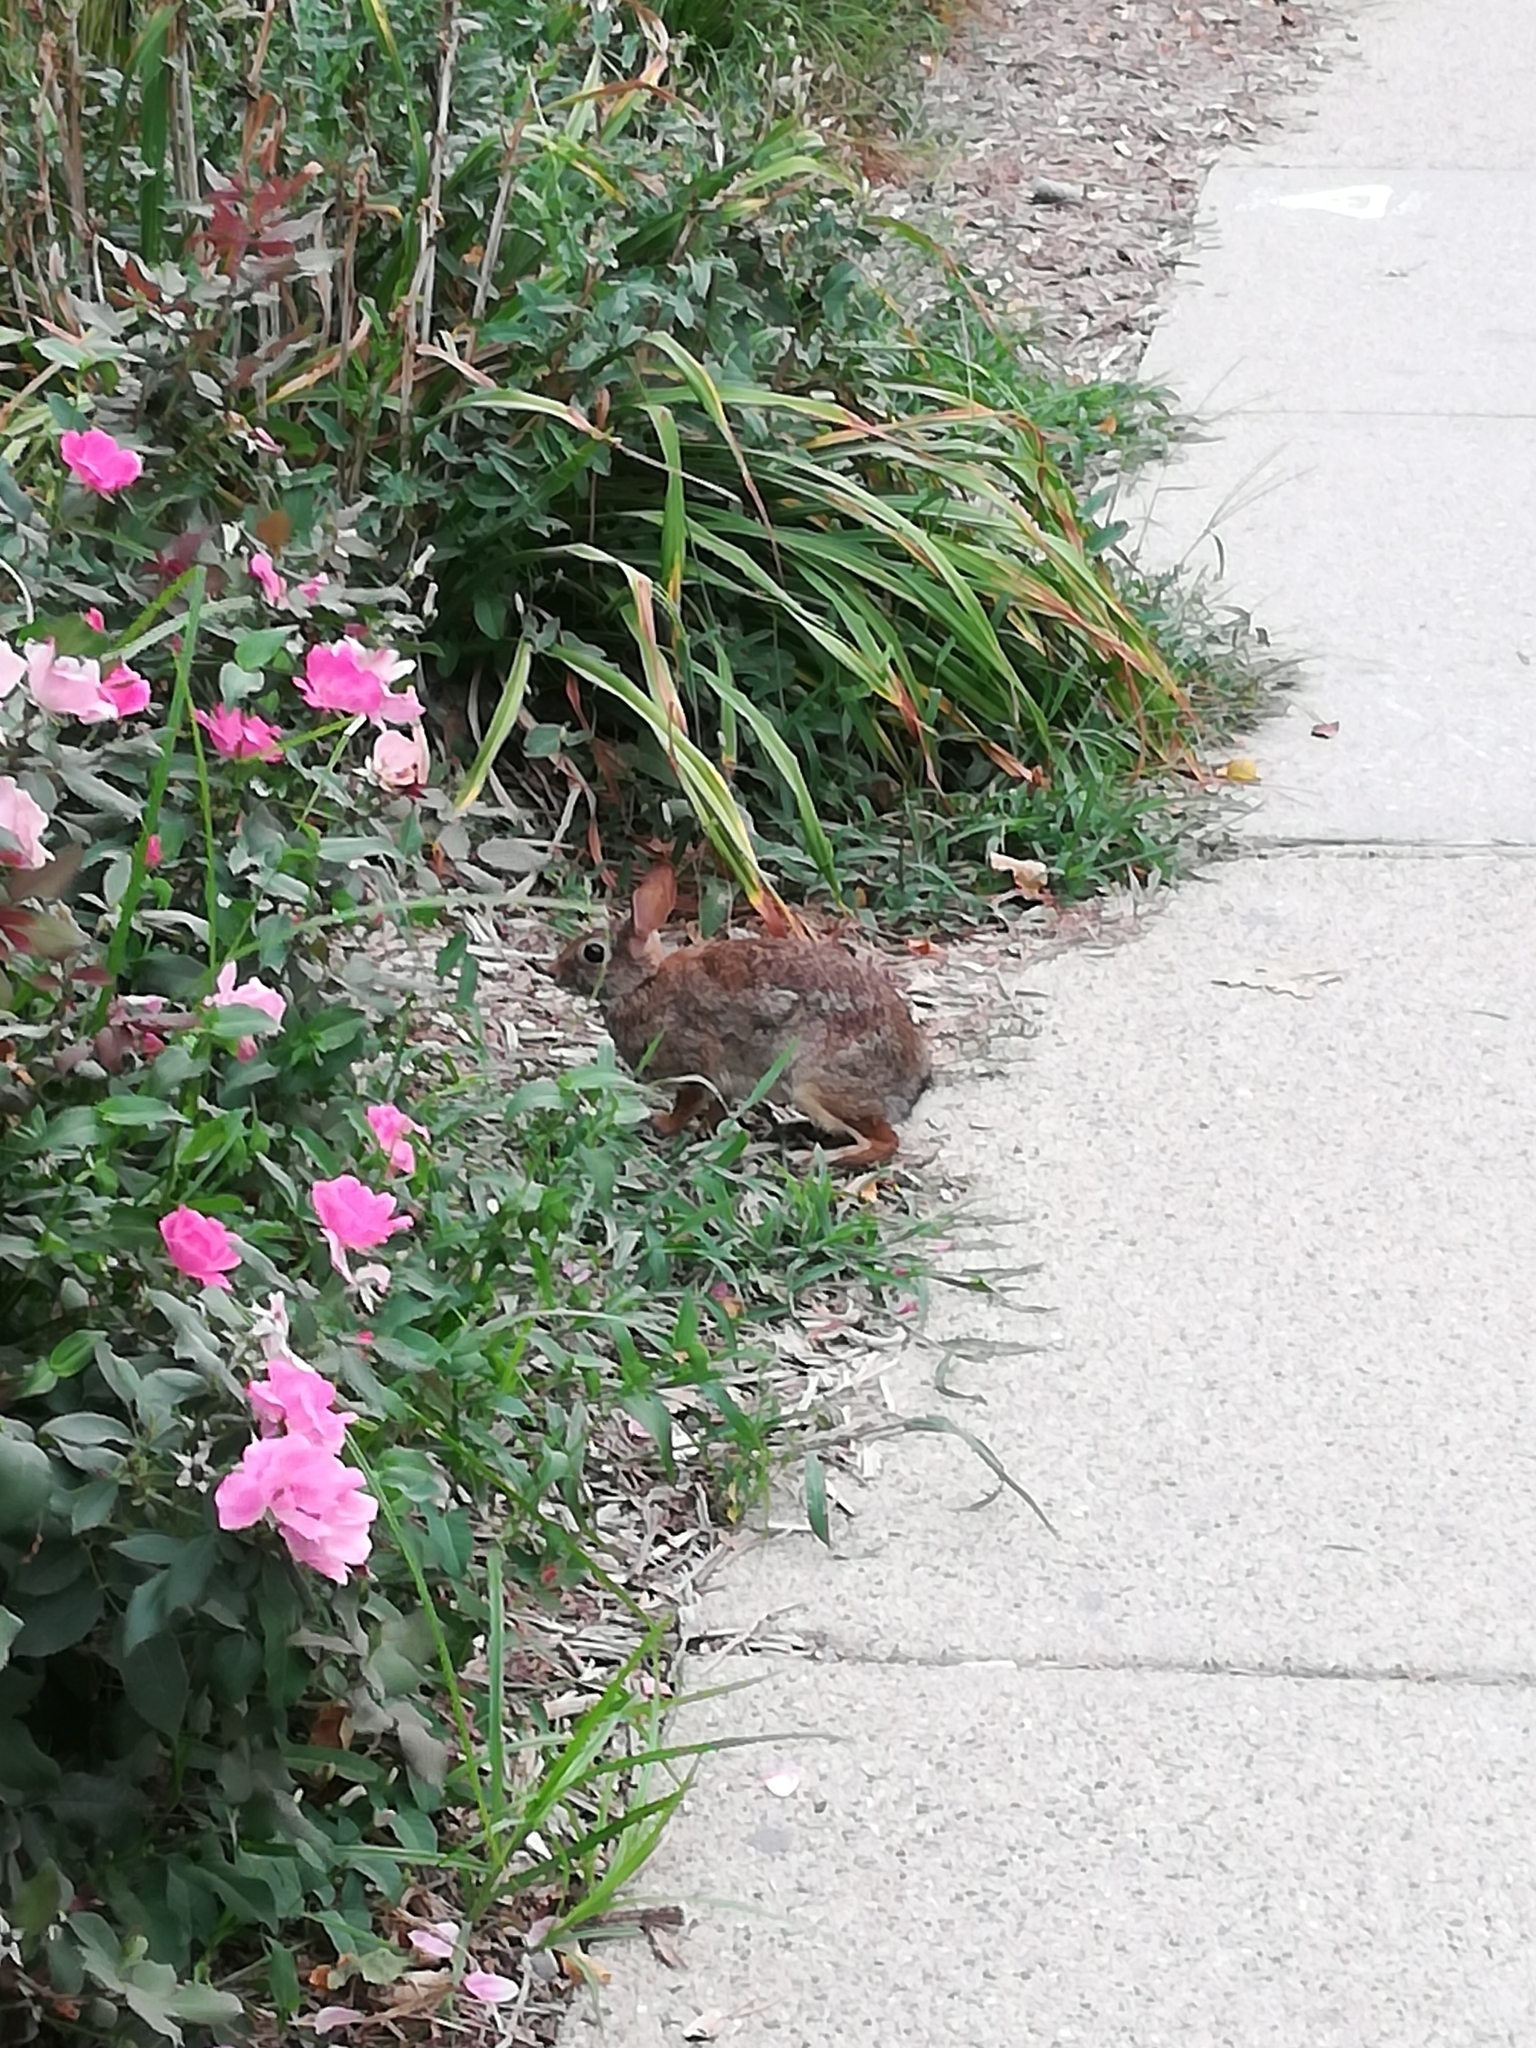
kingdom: Animalia
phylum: Chordata
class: Mammalia
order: Lagomorpha
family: Leporidae
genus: Sylvilagus
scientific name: Sylvilagus floridanus
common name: Eastern cottontail
